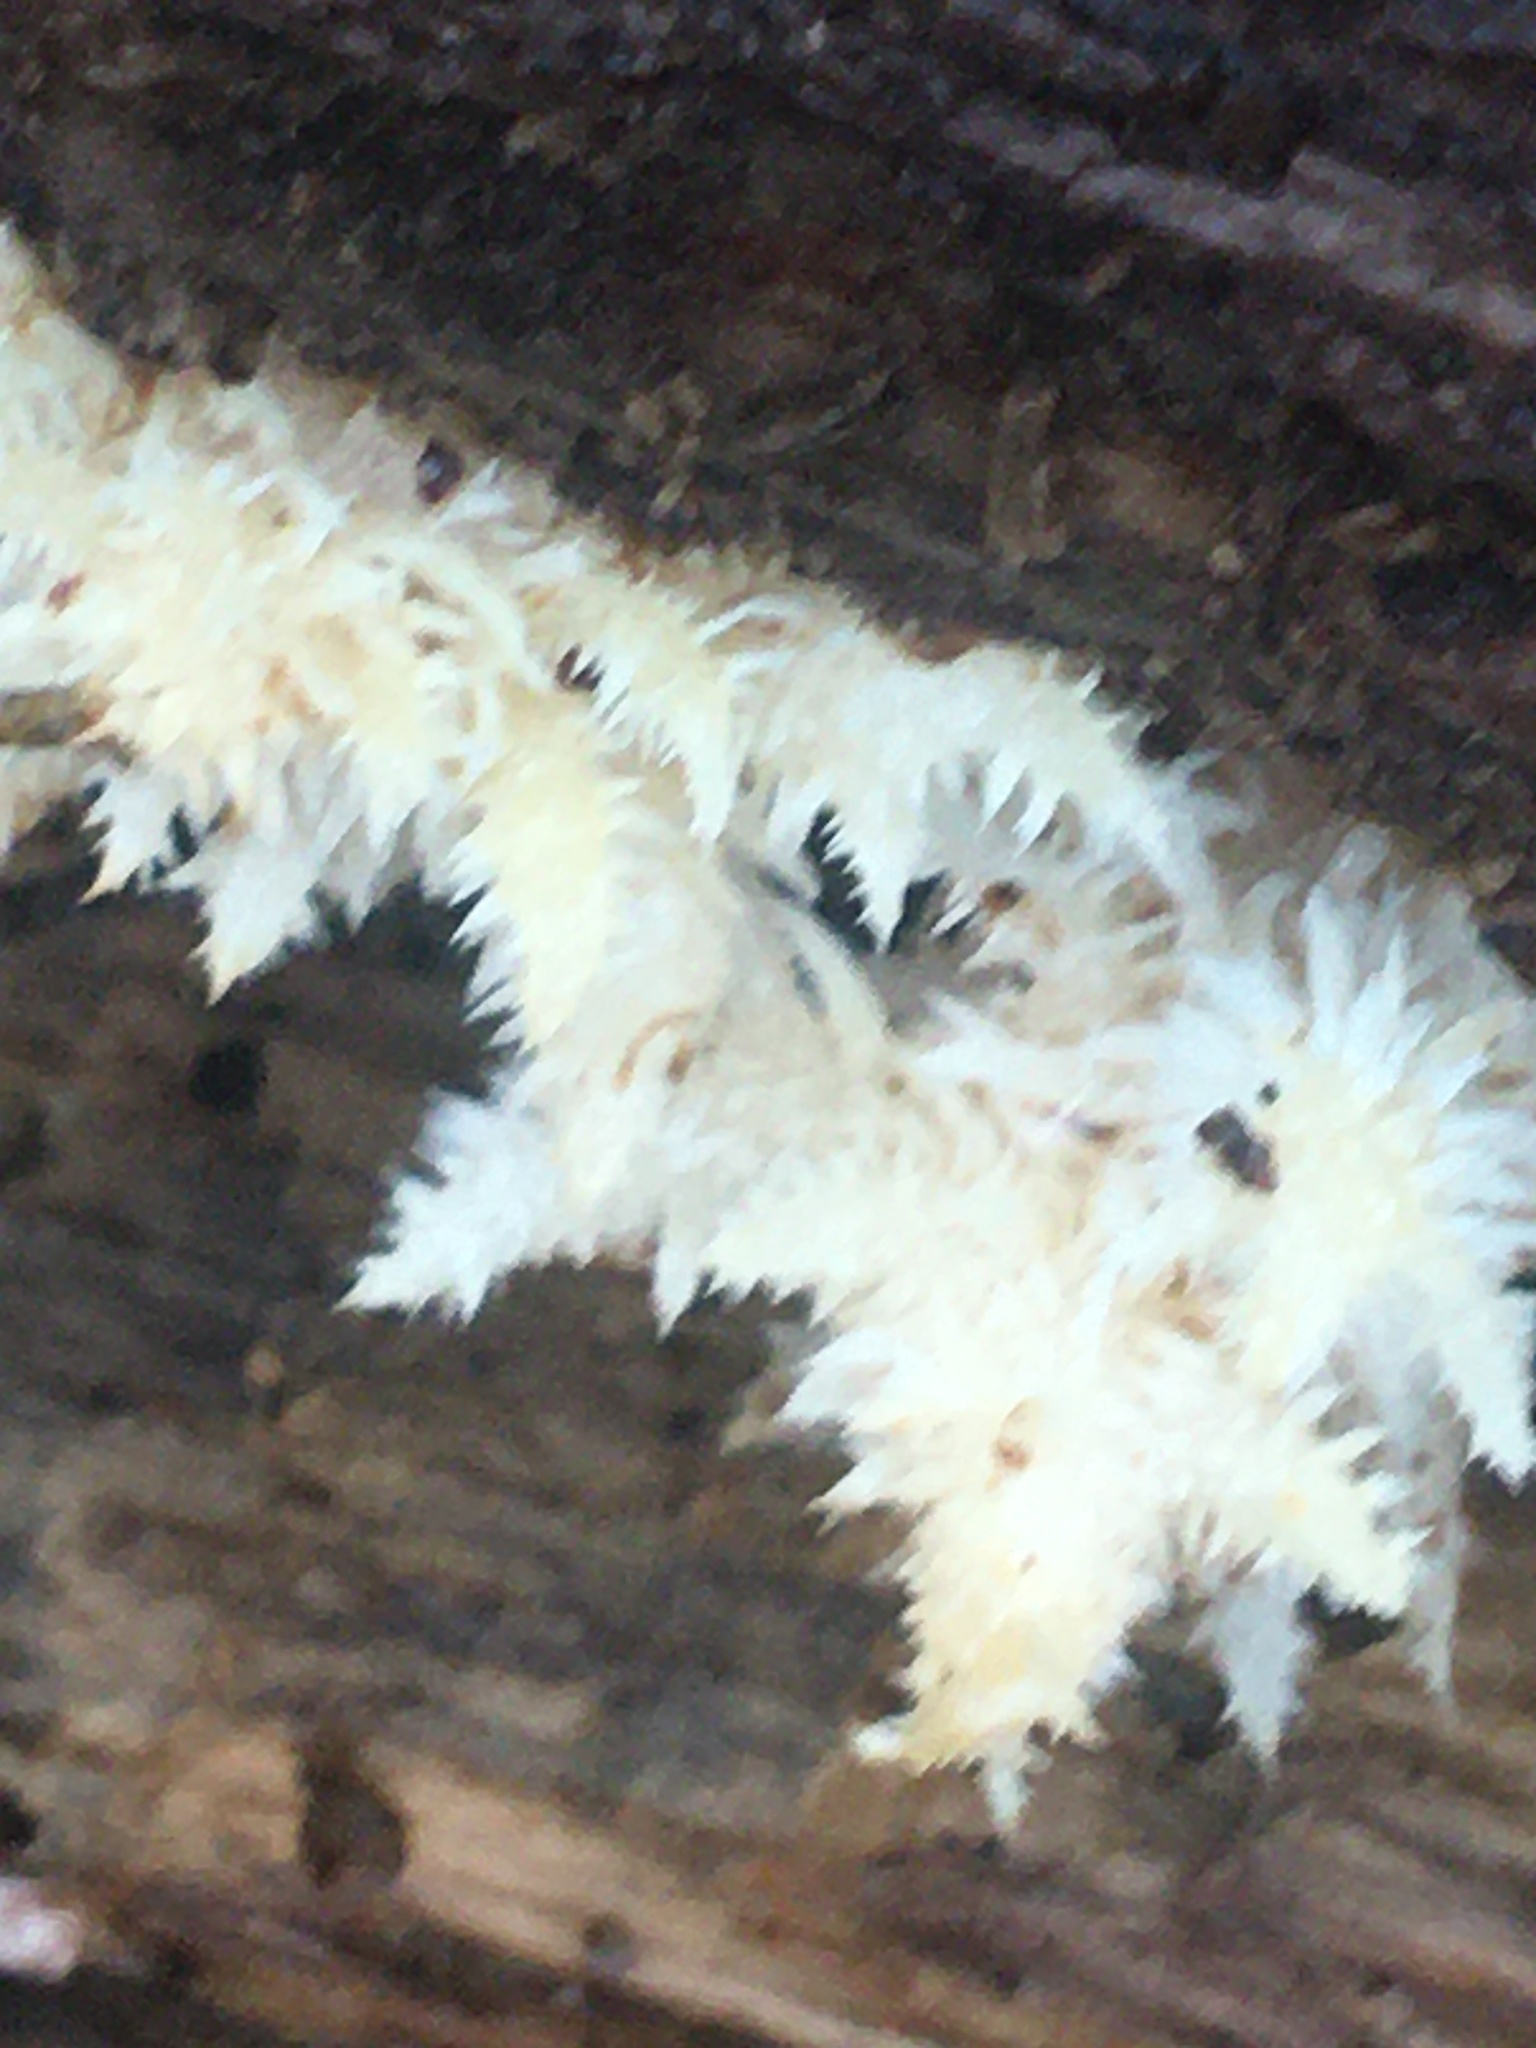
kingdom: Fungi
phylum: Basidiomycota
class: Agaricomycetes
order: Russulales
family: Hericiaceae
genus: Hericium
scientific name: Hericium coralloides
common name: Coral tooth
